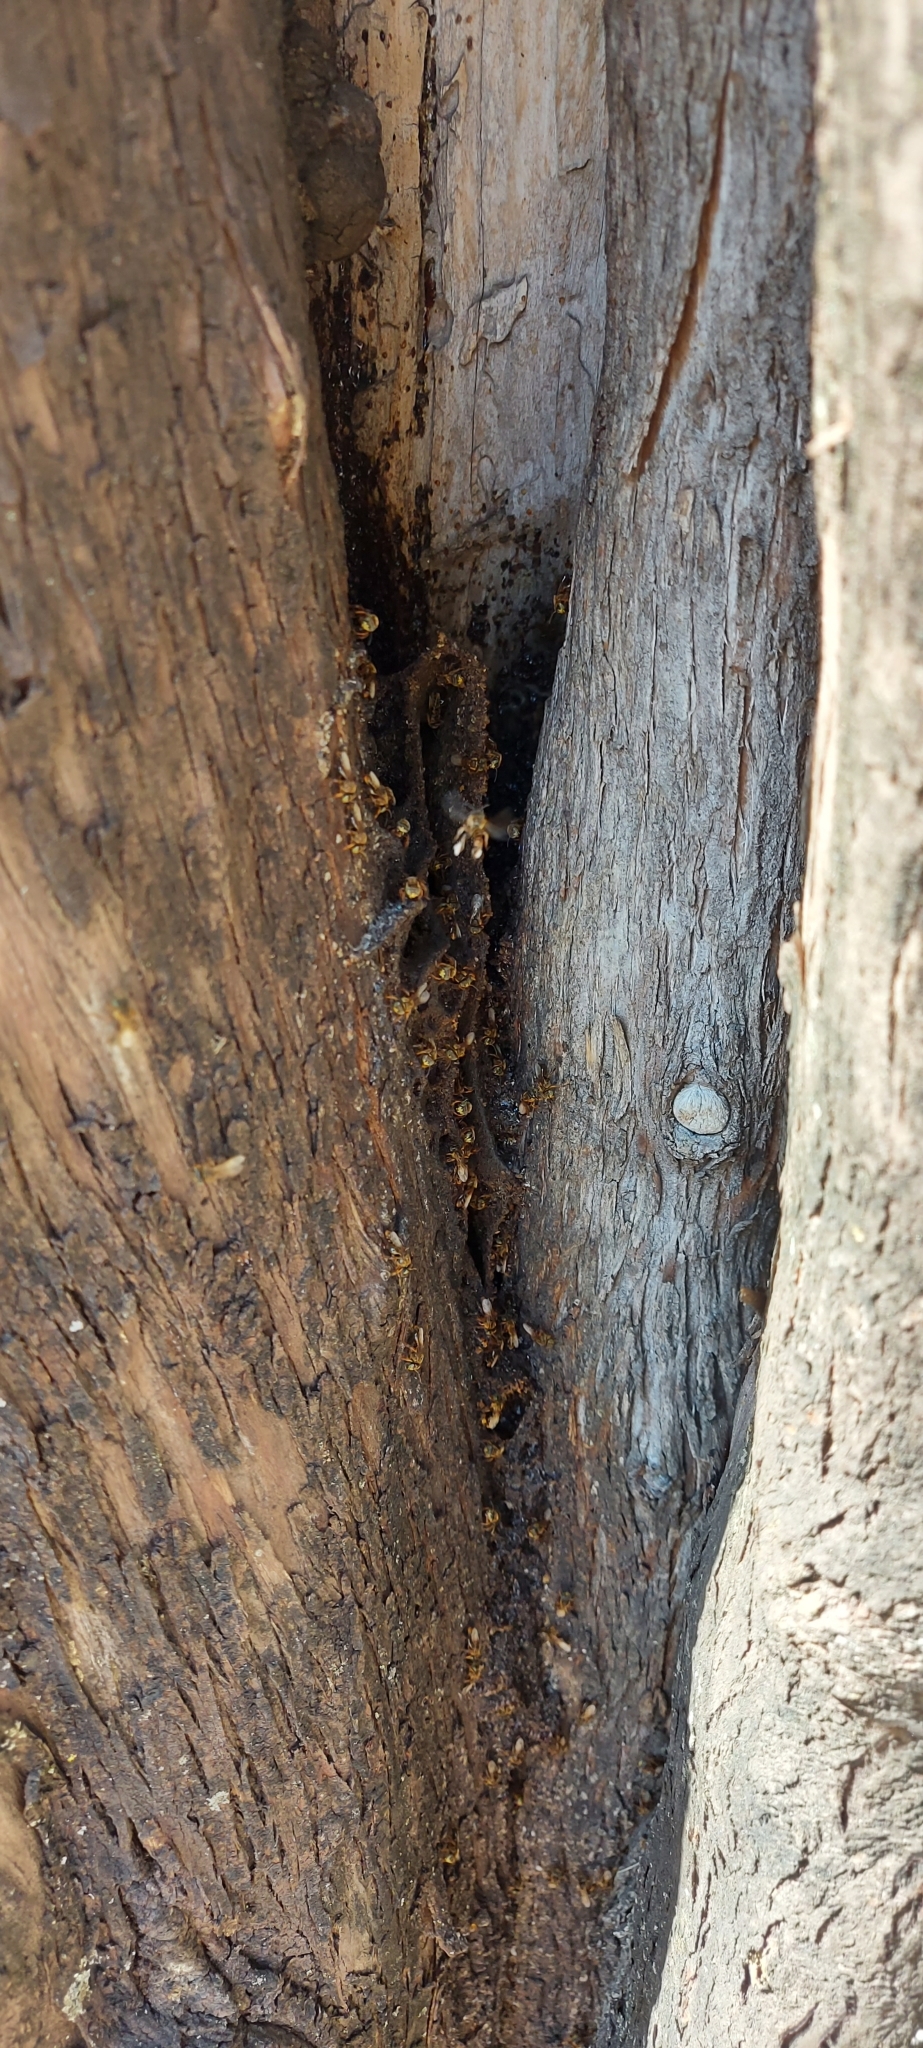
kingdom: Animalia
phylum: Arthropoda
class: Insecta
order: Hymenoptera
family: Apidae
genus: Tetragona
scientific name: Tetragona clavipes
